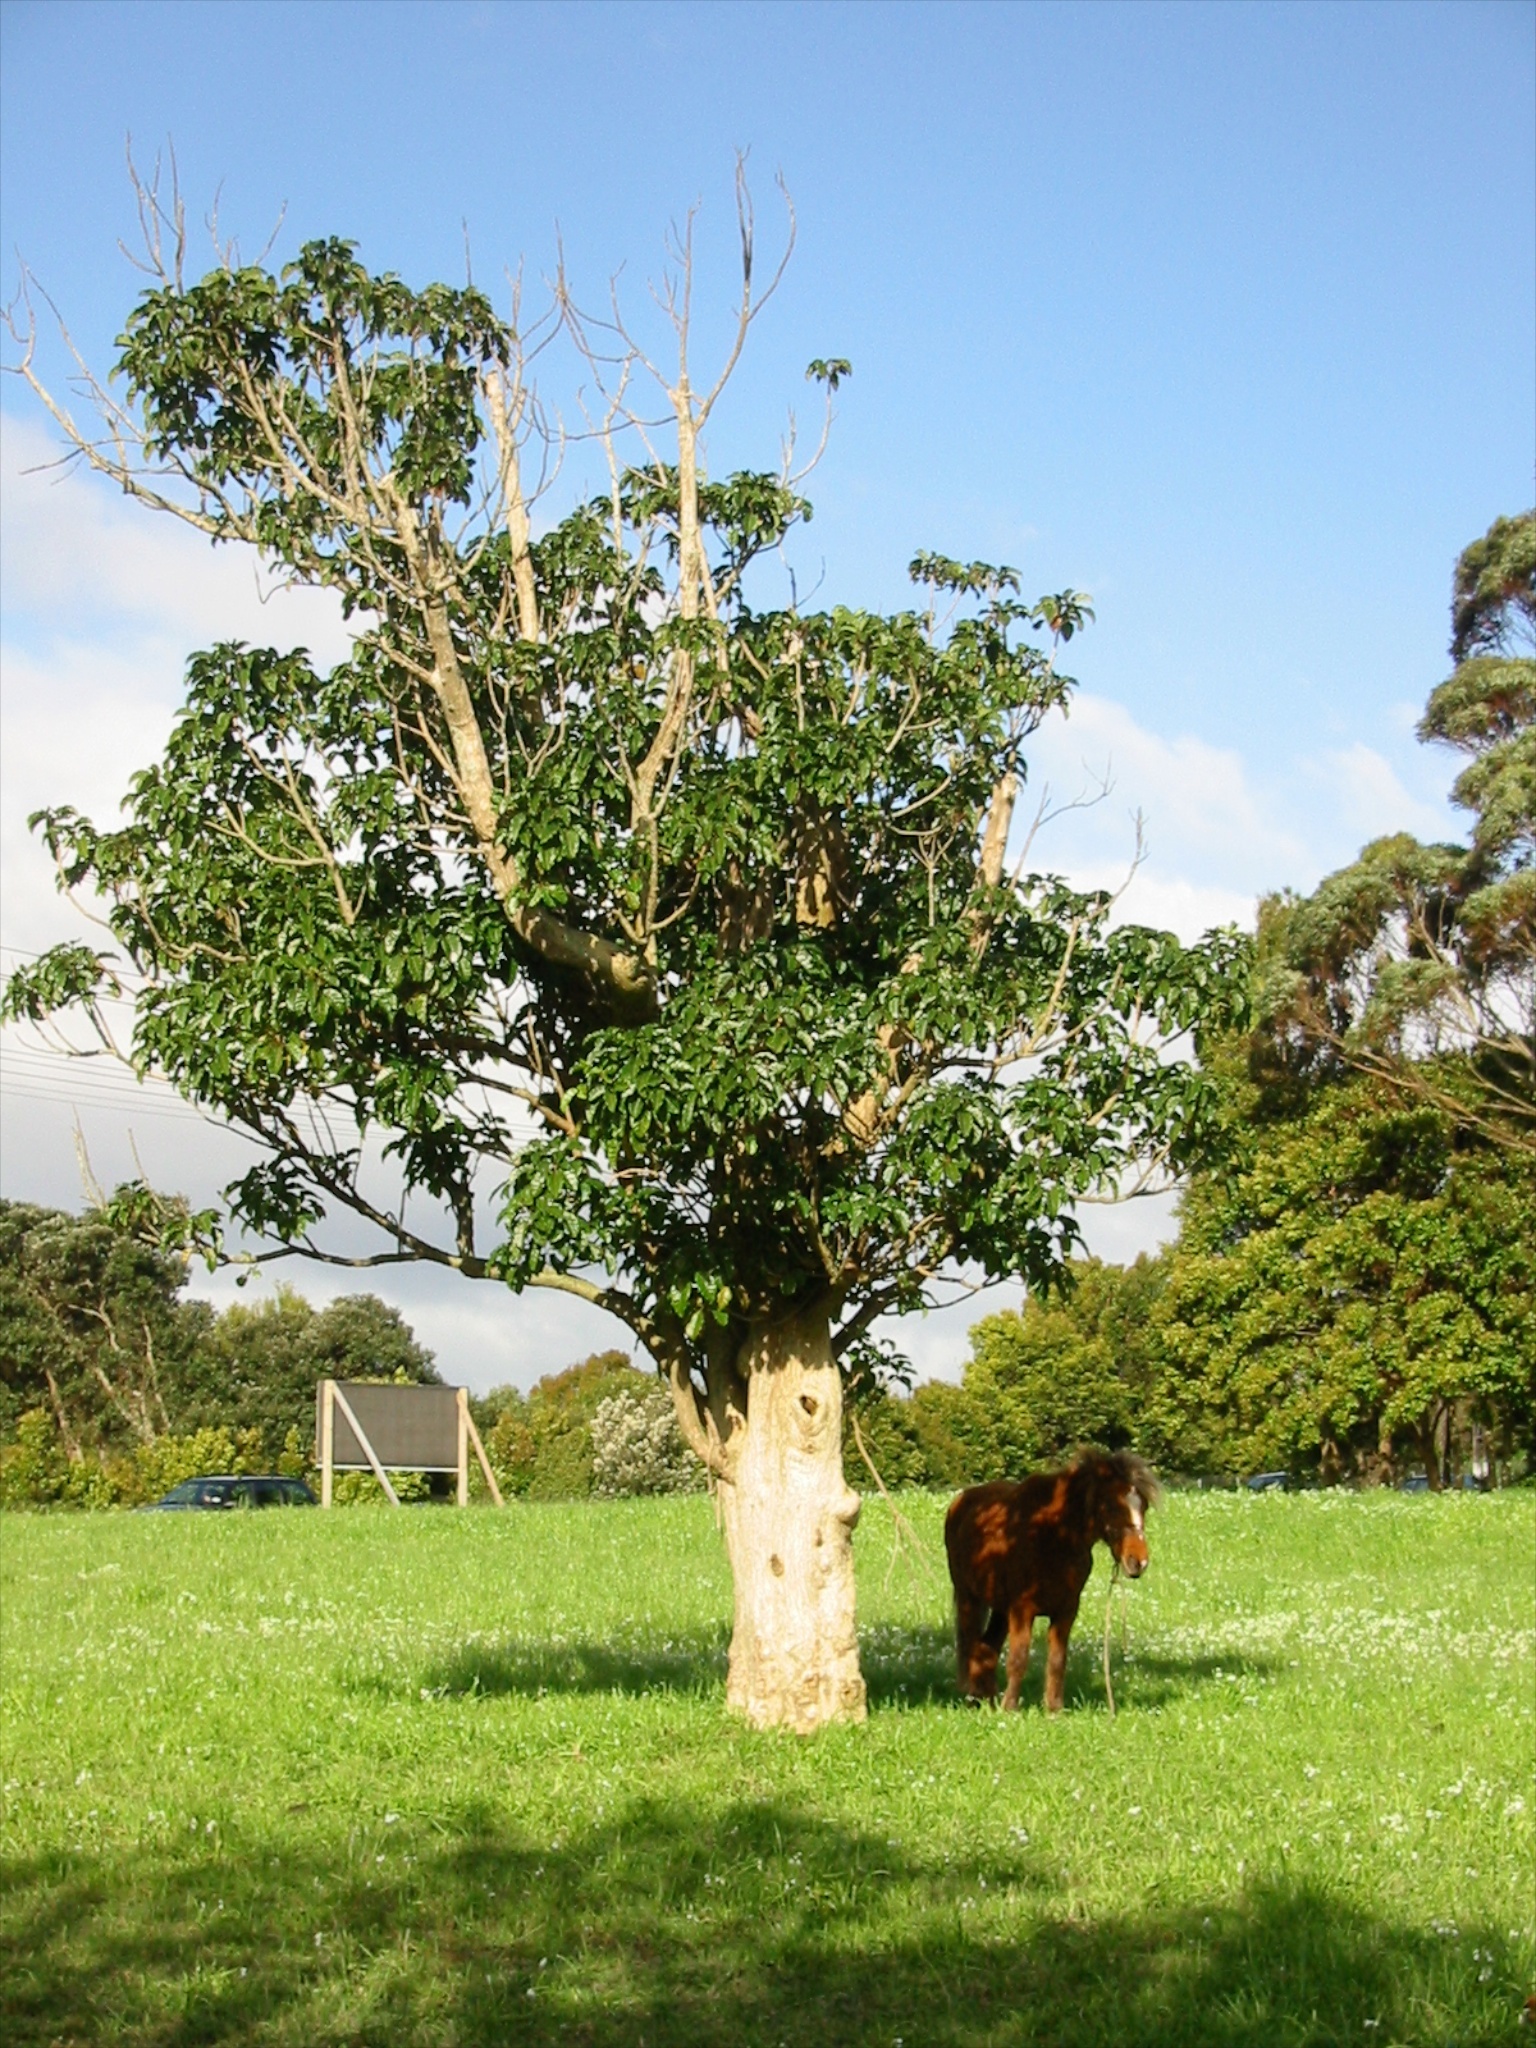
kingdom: Plantae
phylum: Tracheophyta
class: Magnoliopsida
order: Lamiales
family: Lamiaceae
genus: Vitex
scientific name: Vitex lucens
